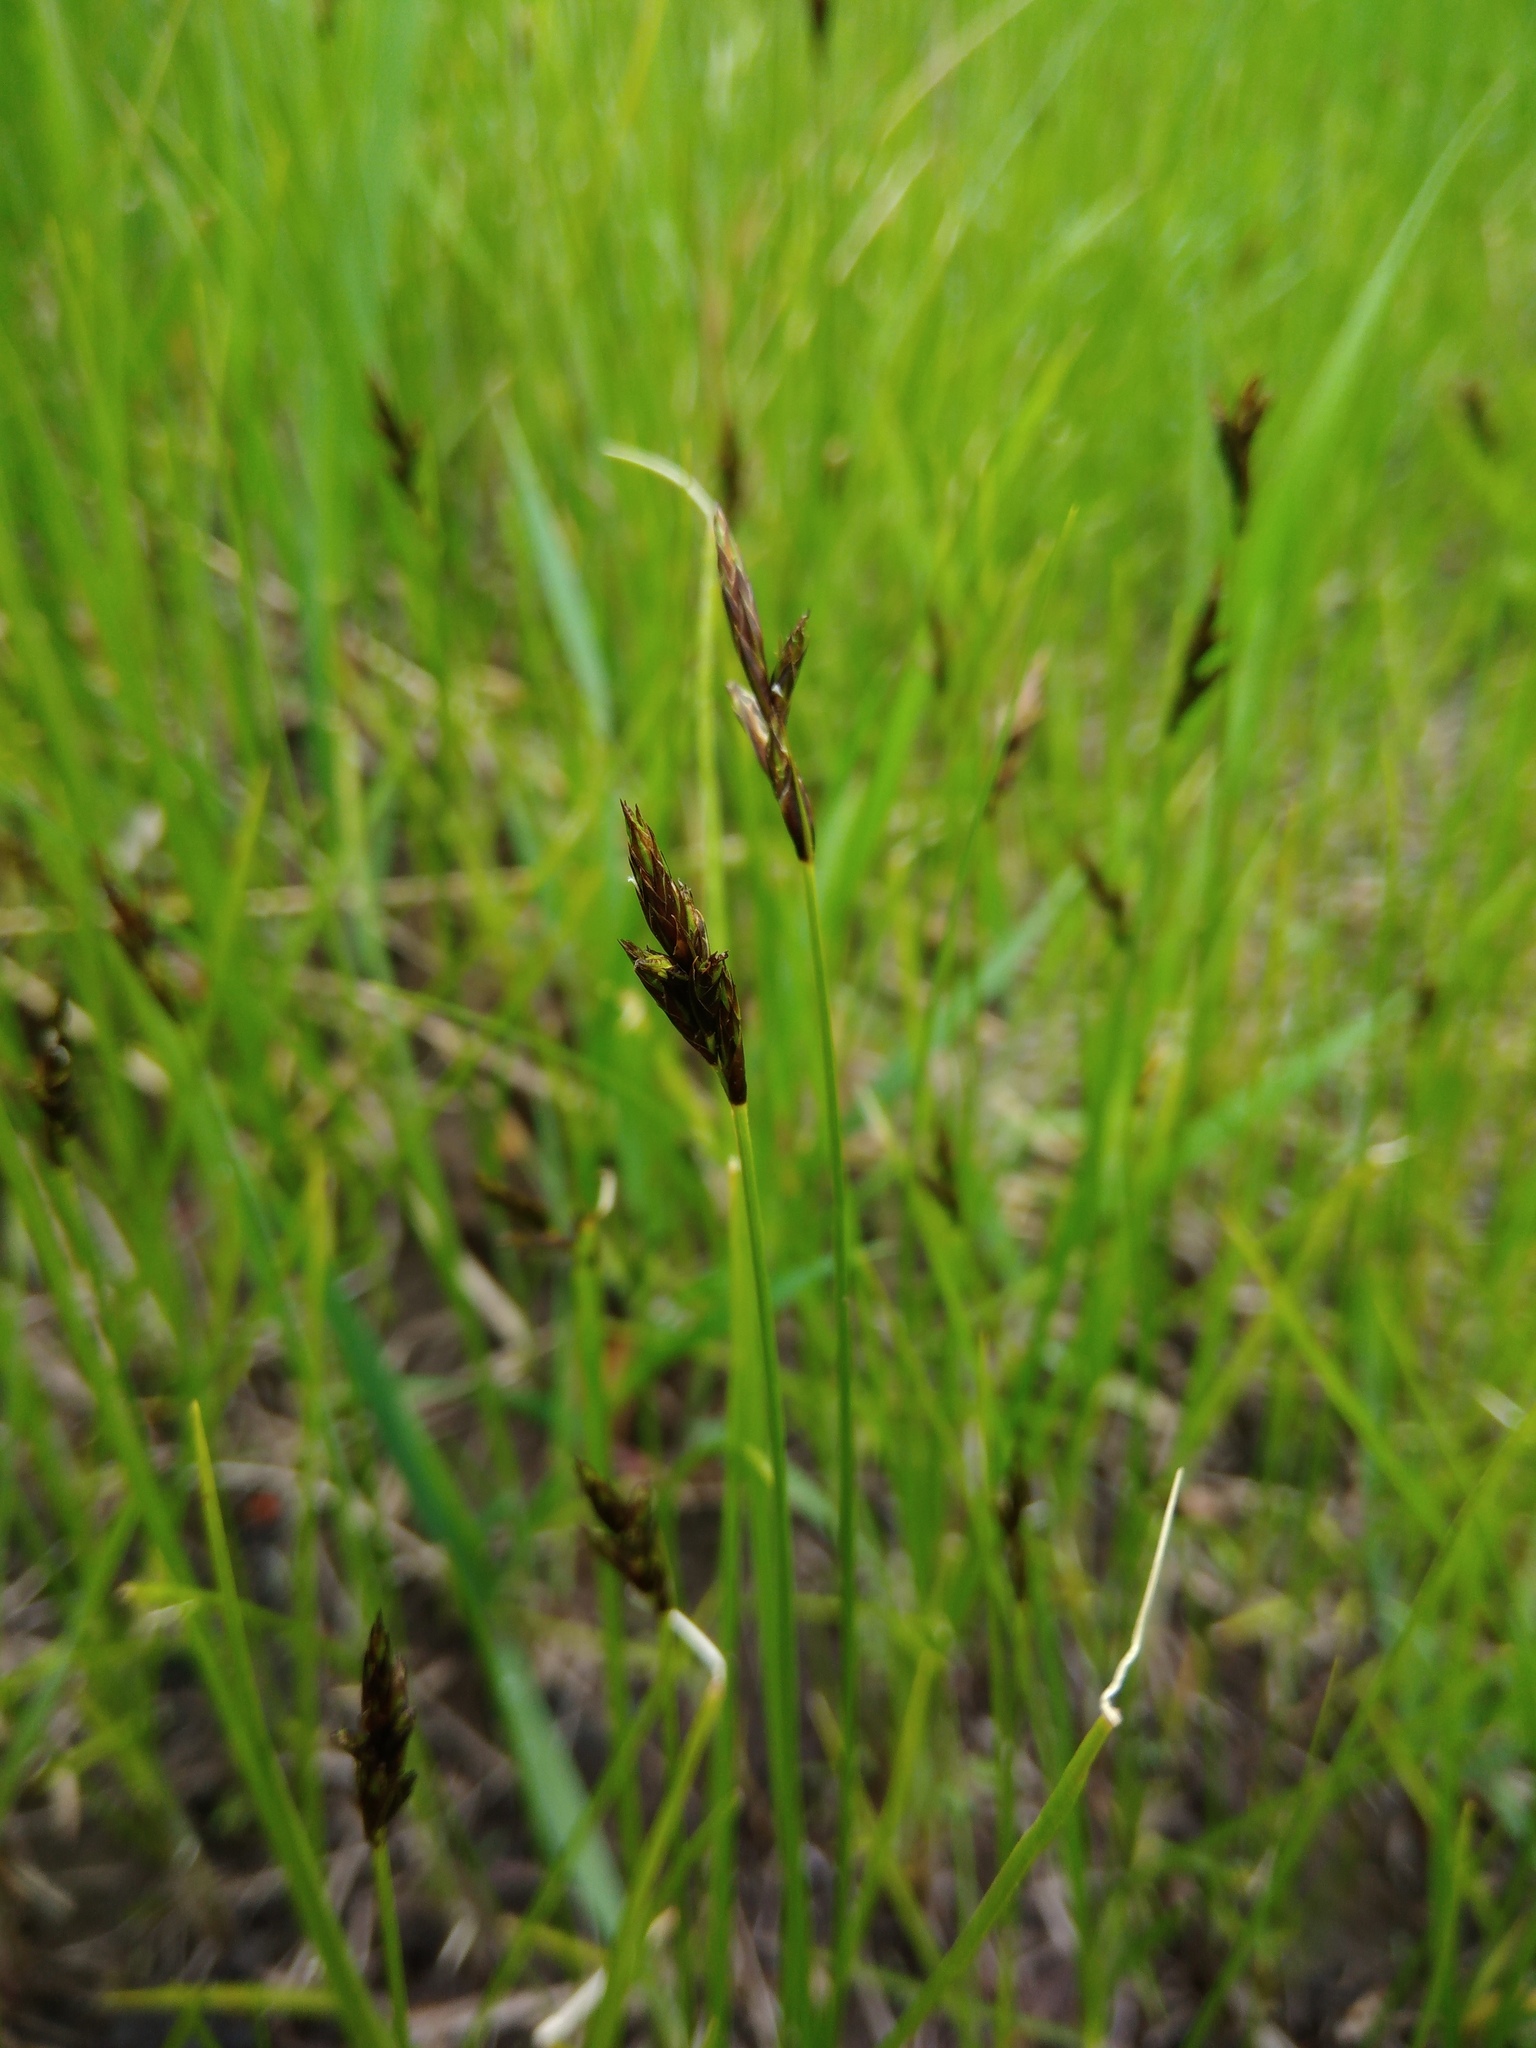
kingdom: Plantae
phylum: Tracheophyta
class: Liliopsida
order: Poales
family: Cyperaceae
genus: Carex
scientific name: Carex praecox
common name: Early sedge
